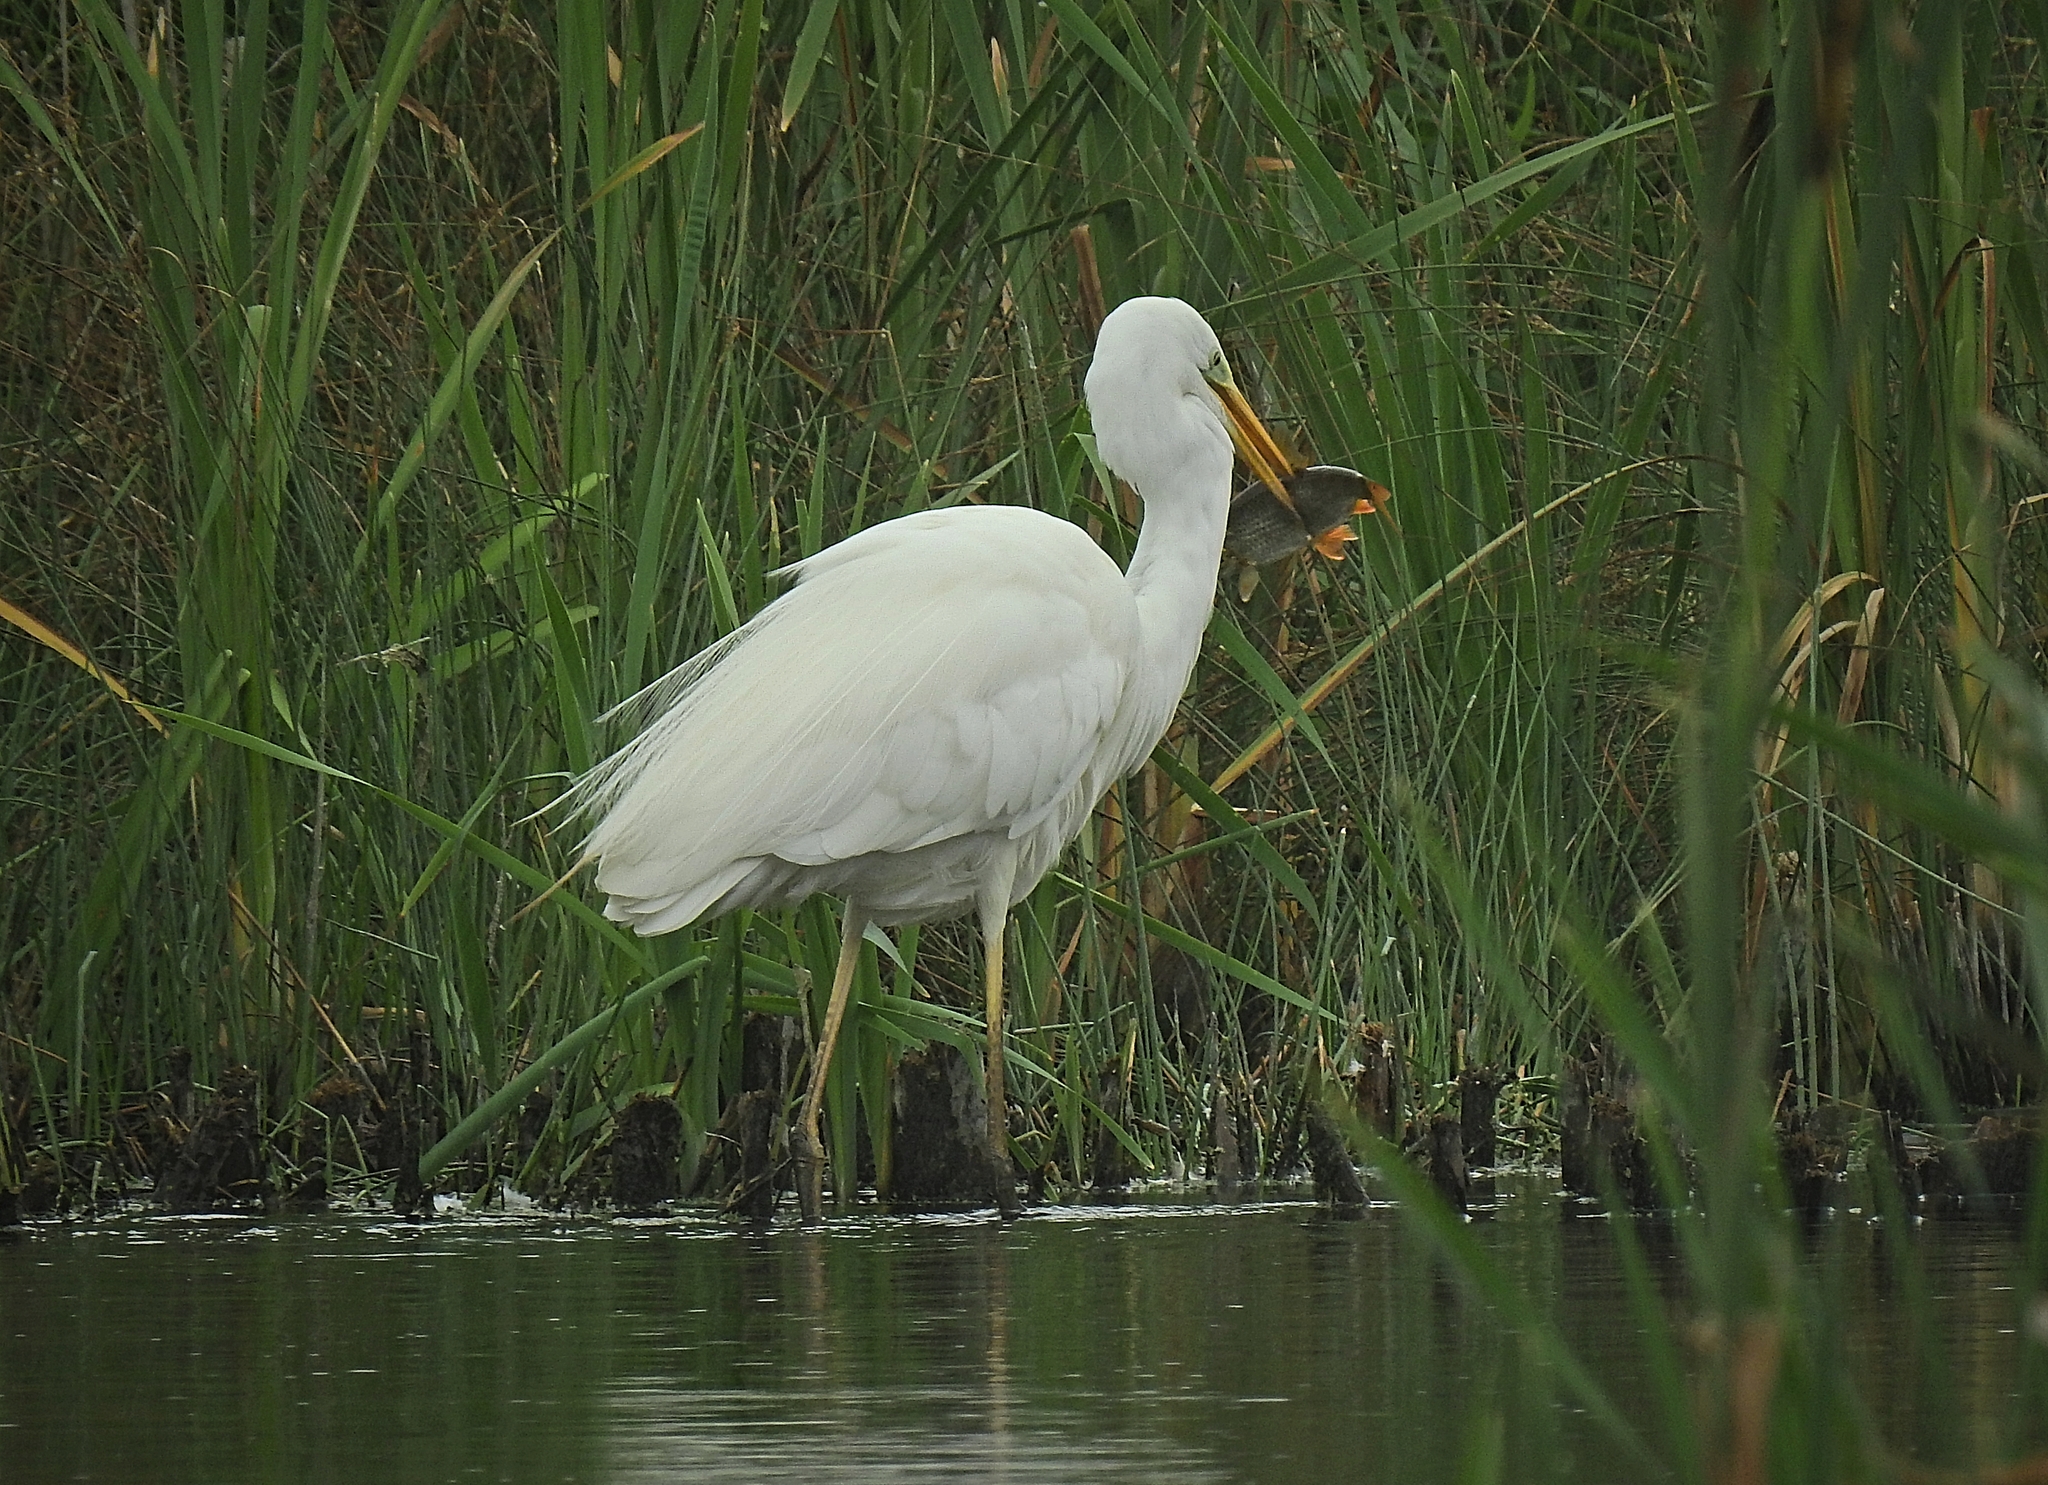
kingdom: Animalia
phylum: Chordata
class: Aves
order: Pelecaniformes
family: Ardeidae
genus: Ardea
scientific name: Ardea alba
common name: Great egret
